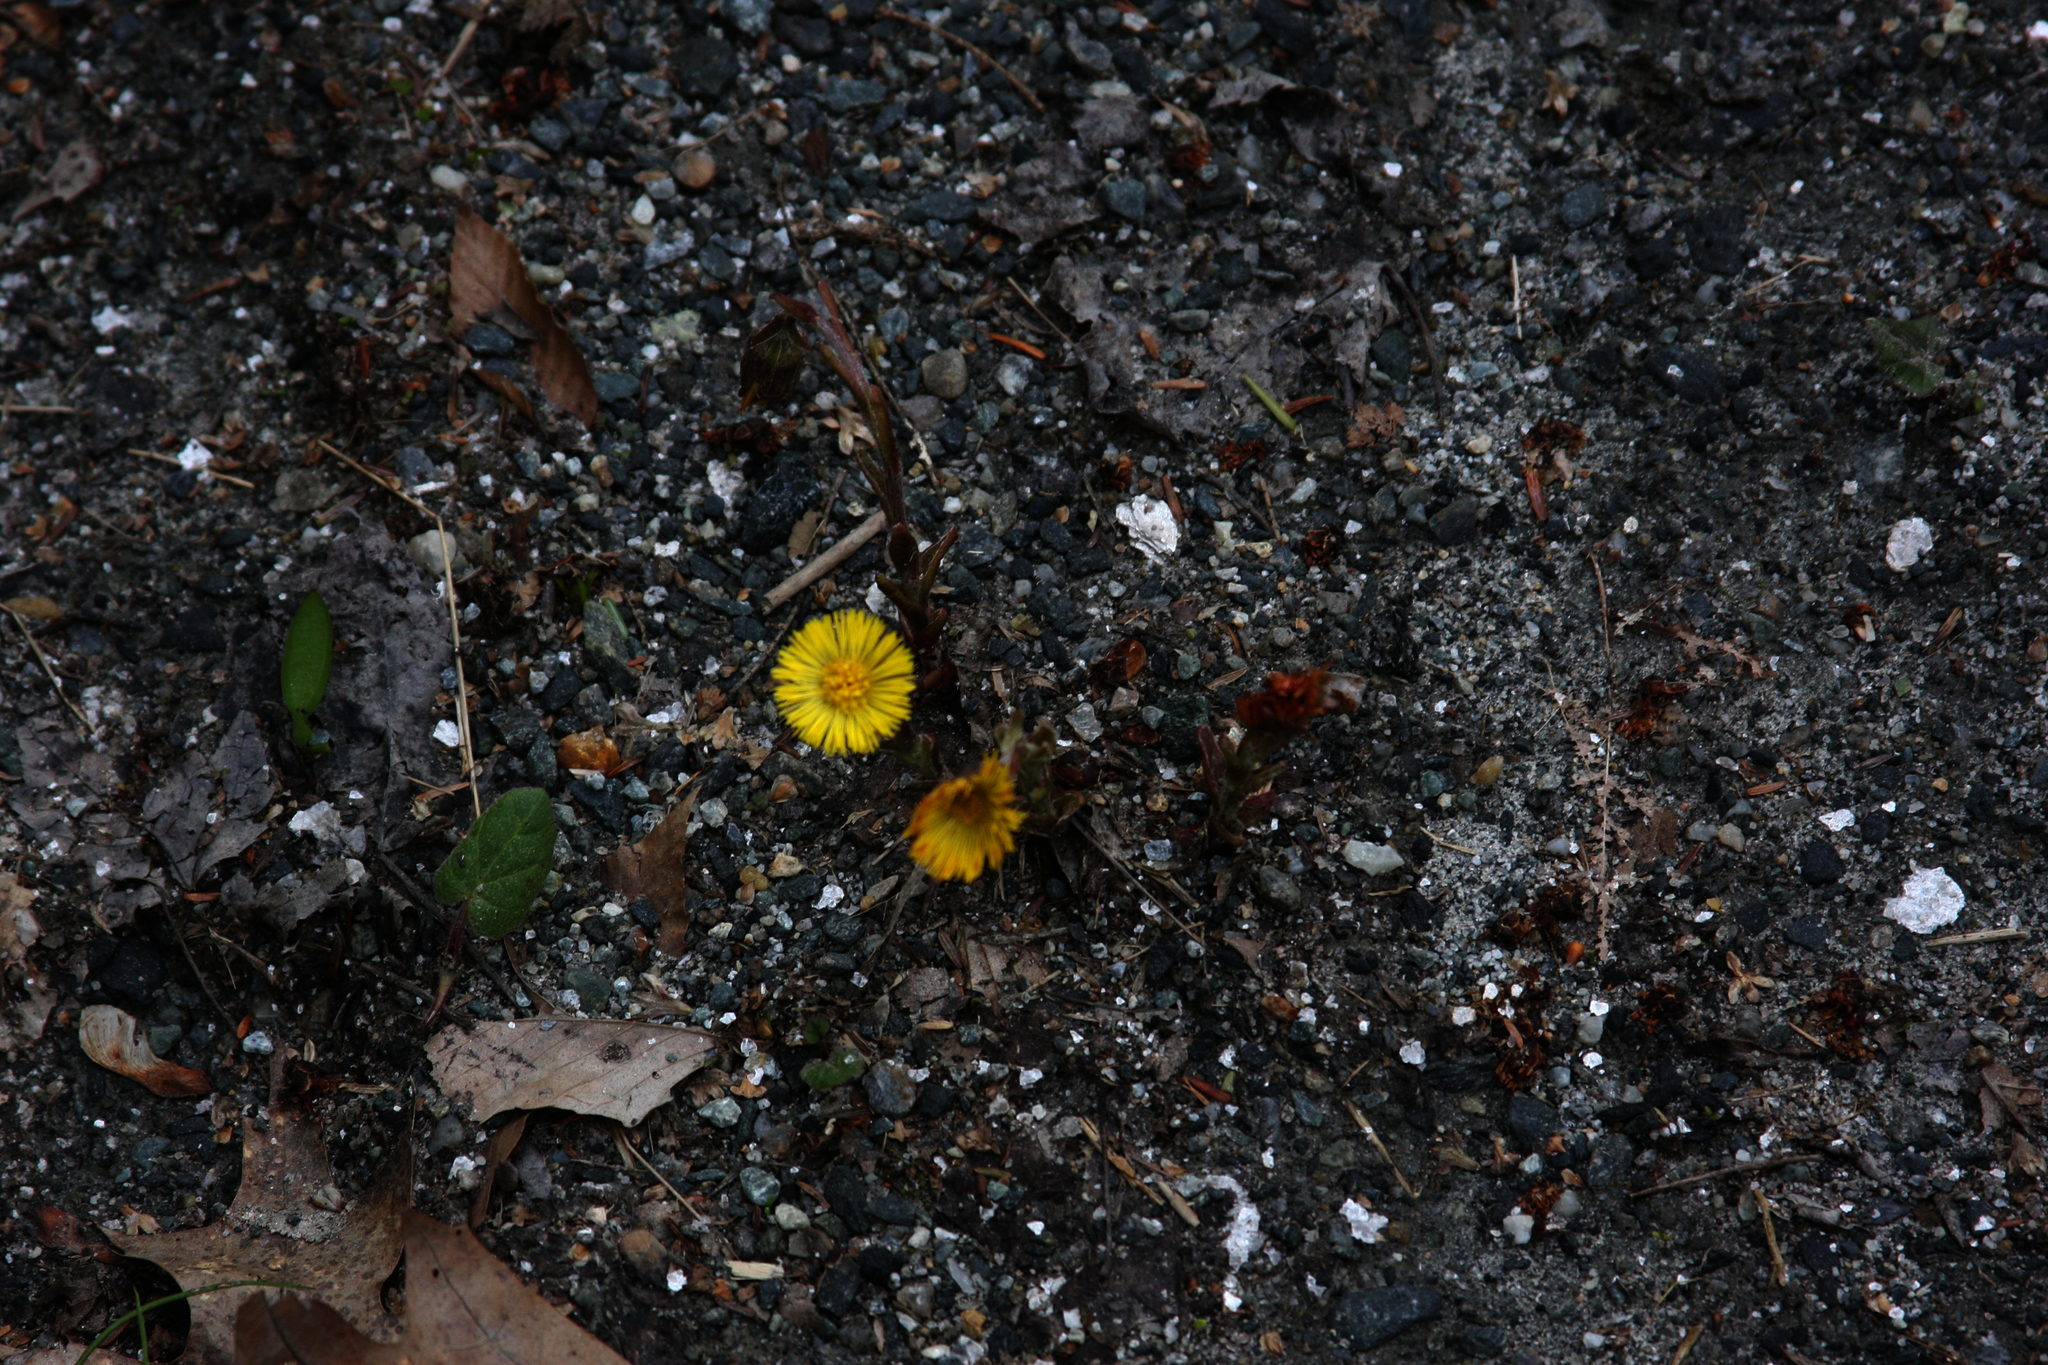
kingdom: Plantae
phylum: Tracheophyta
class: Magnoliopsida
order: Asterales
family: Asteraceae
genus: Tussilago
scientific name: Tussilago farfara
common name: Coltsfoot
